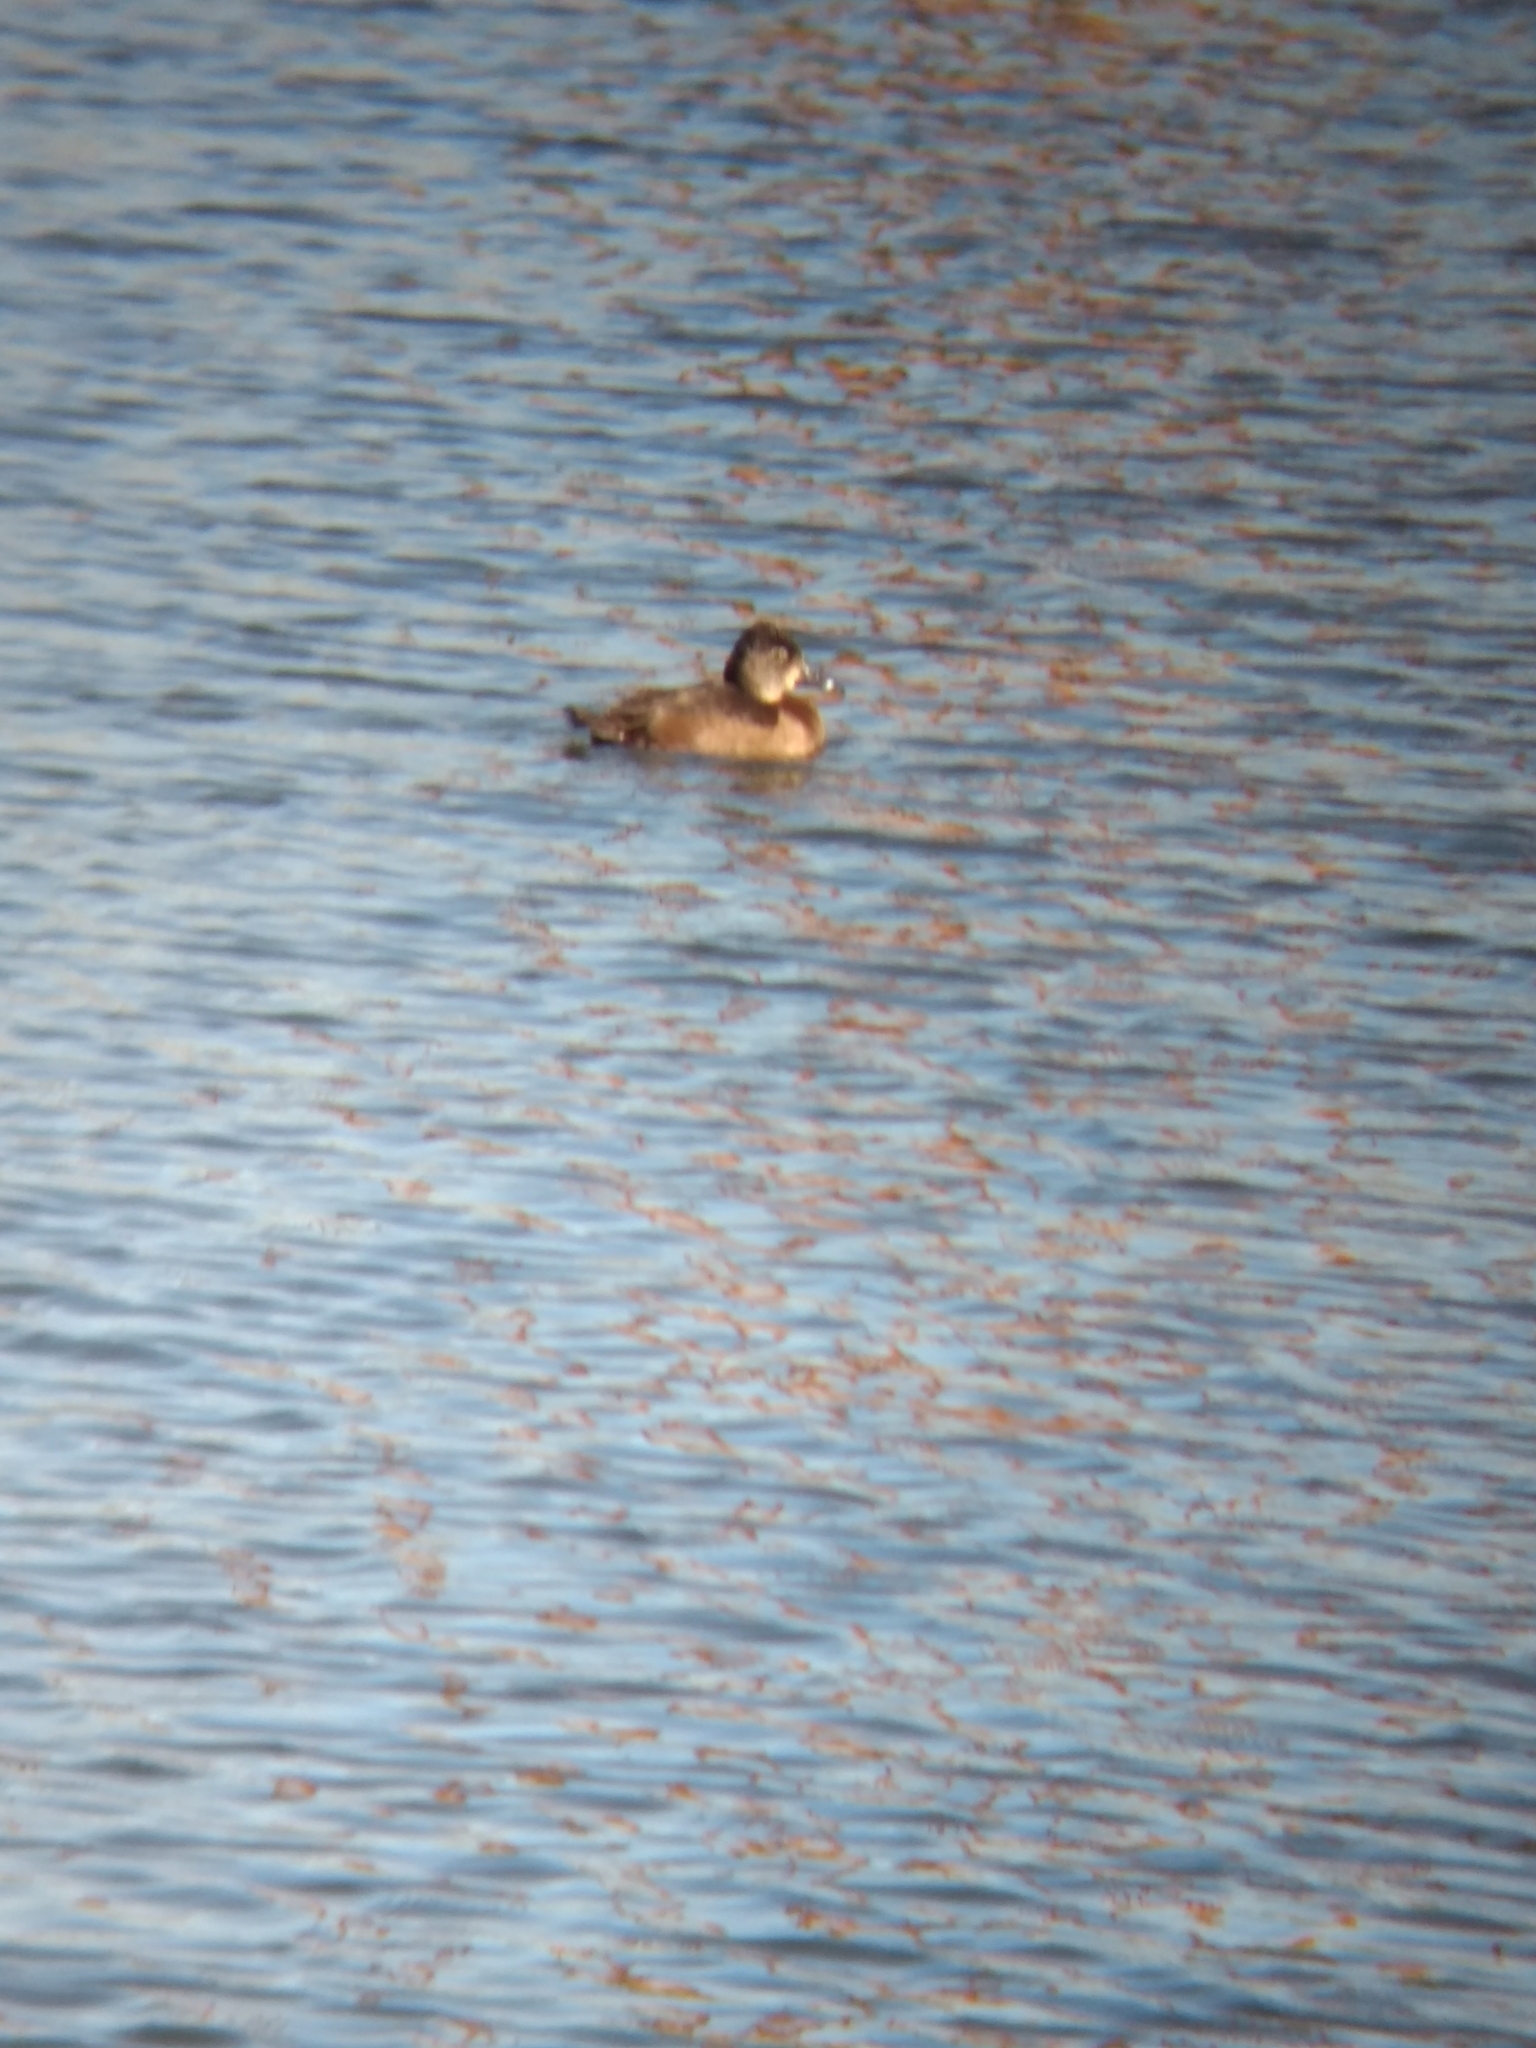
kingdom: Animalia
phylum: Chordata
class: Aves
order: Anseriformes
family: Anatidae
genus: Aythya
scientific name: Aythya collaris
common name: Ring-necked duck
